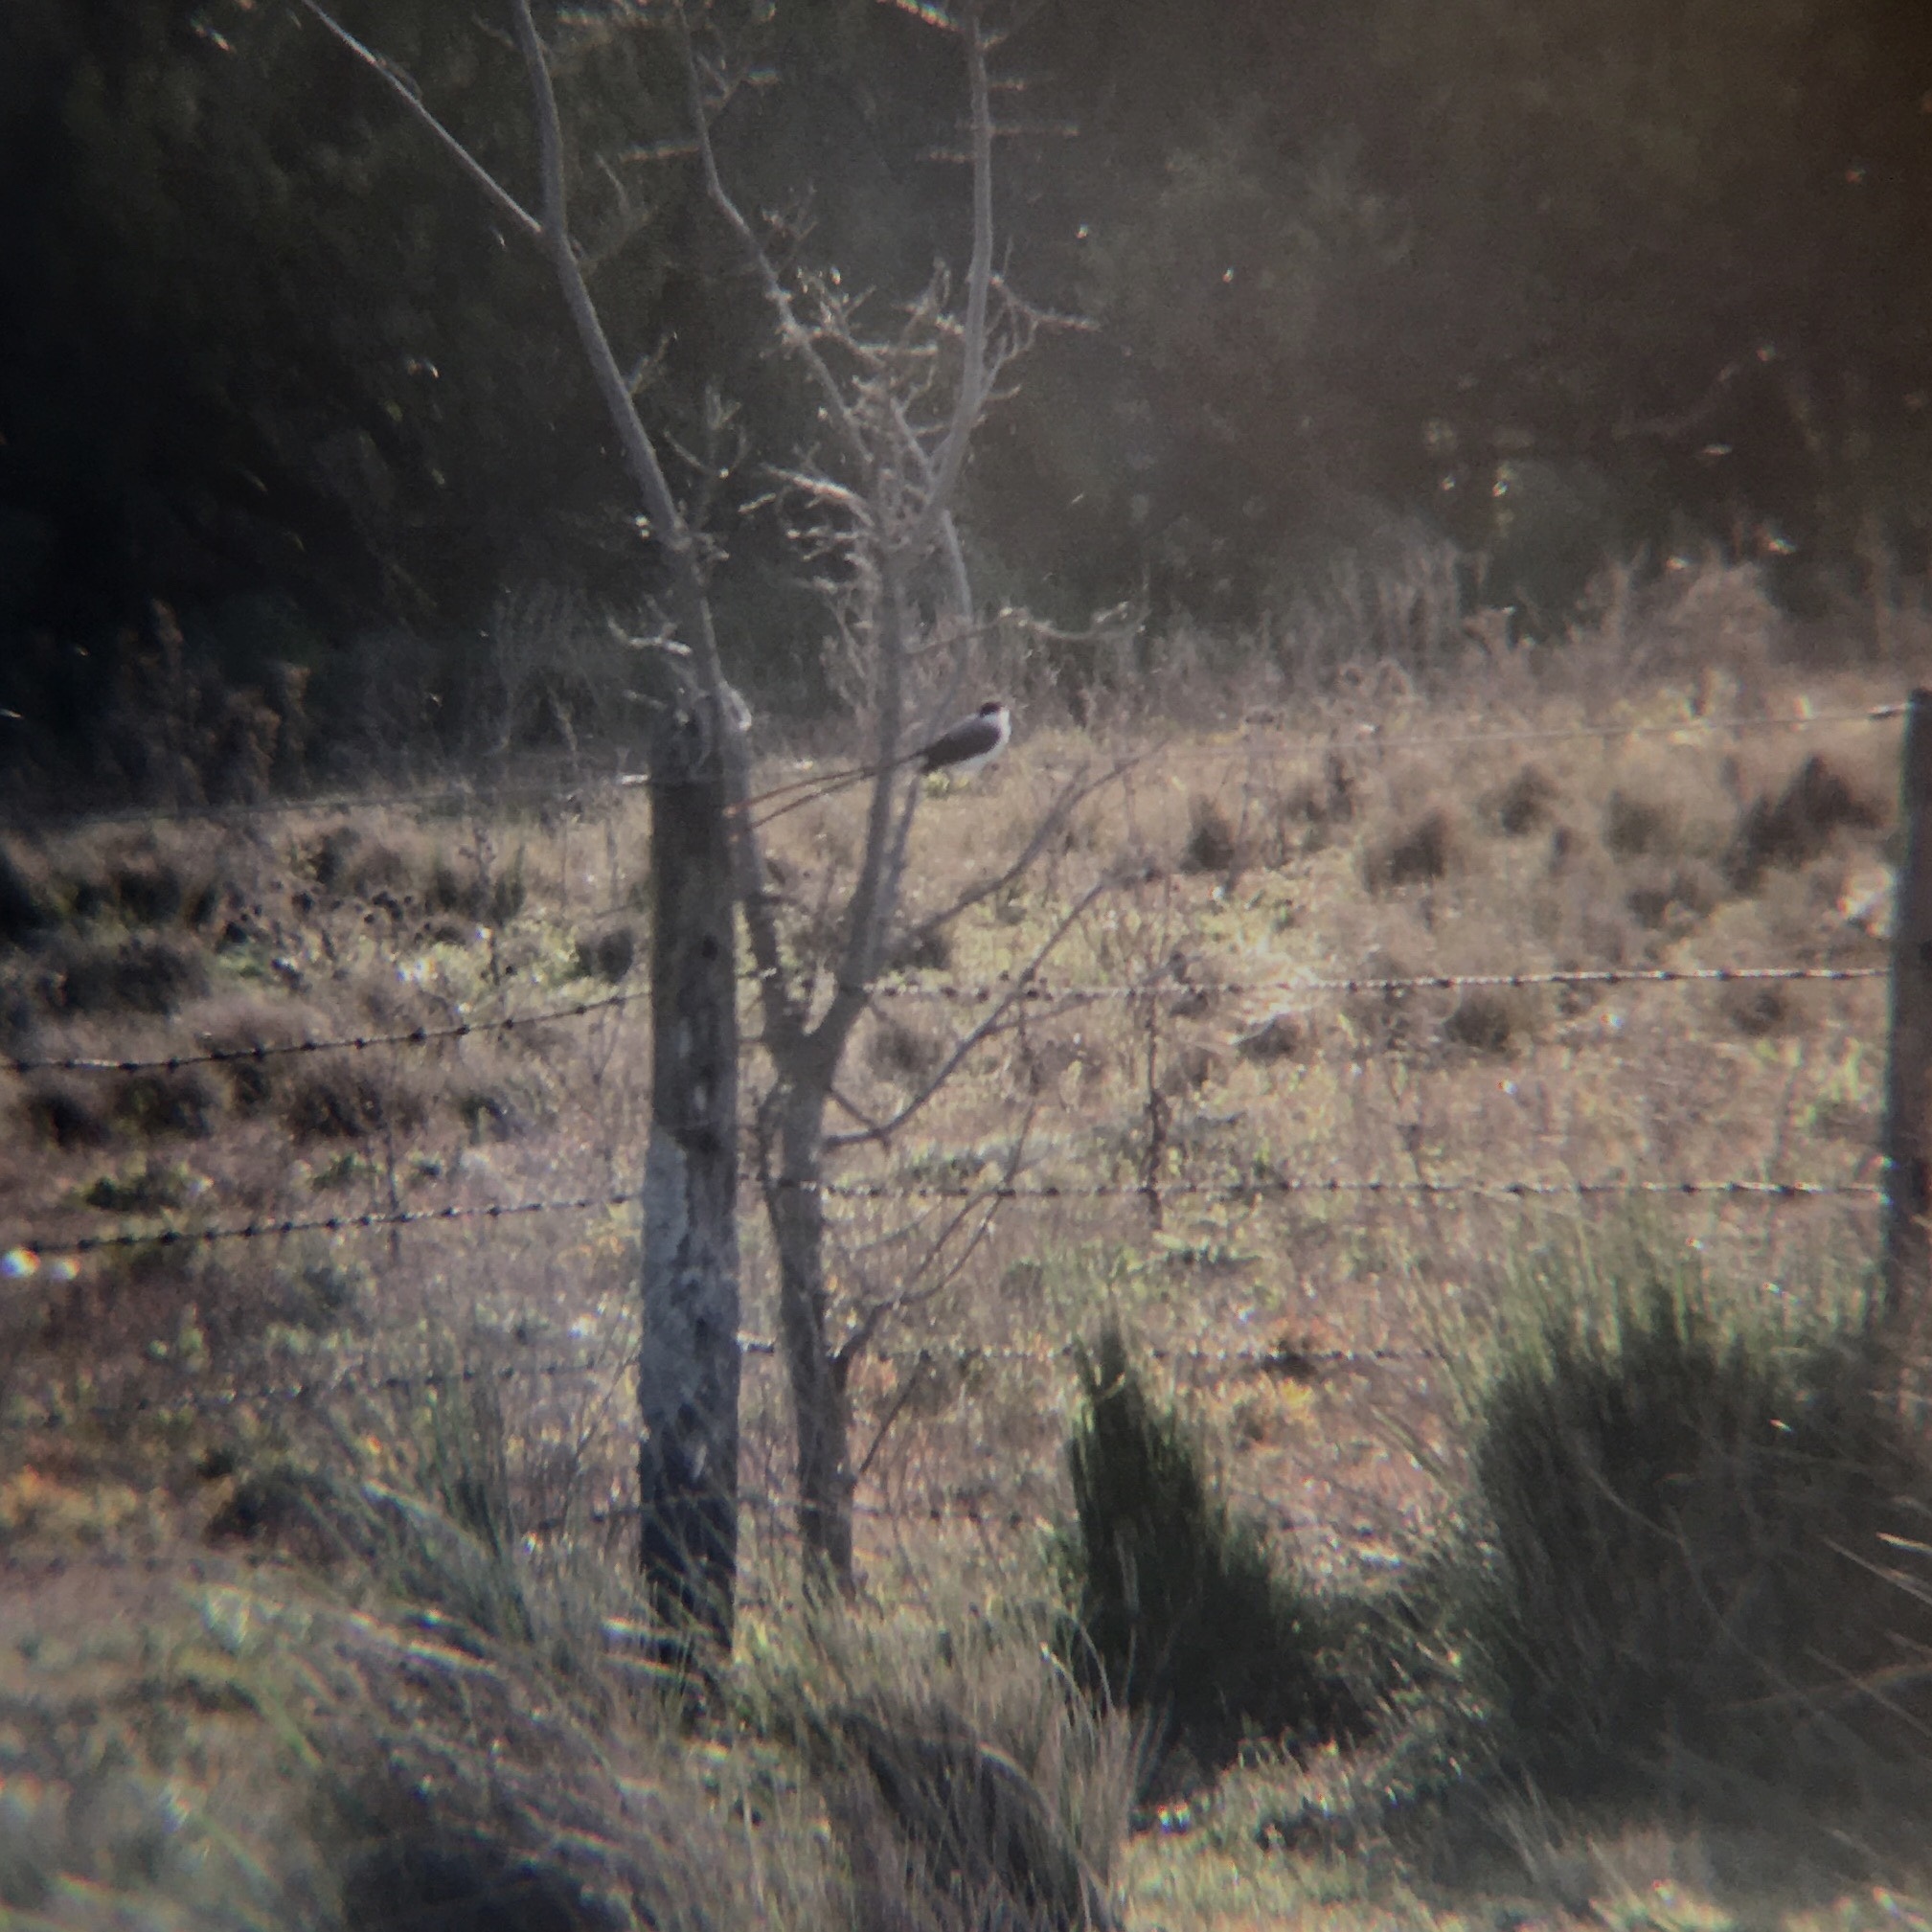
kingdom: Animalia
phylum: Chordata
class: Aves
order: Passeriformes
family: Tyrannidae
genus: Tyrannus
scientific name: Tyrannus savana
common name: Fork-tailed flycatcher
